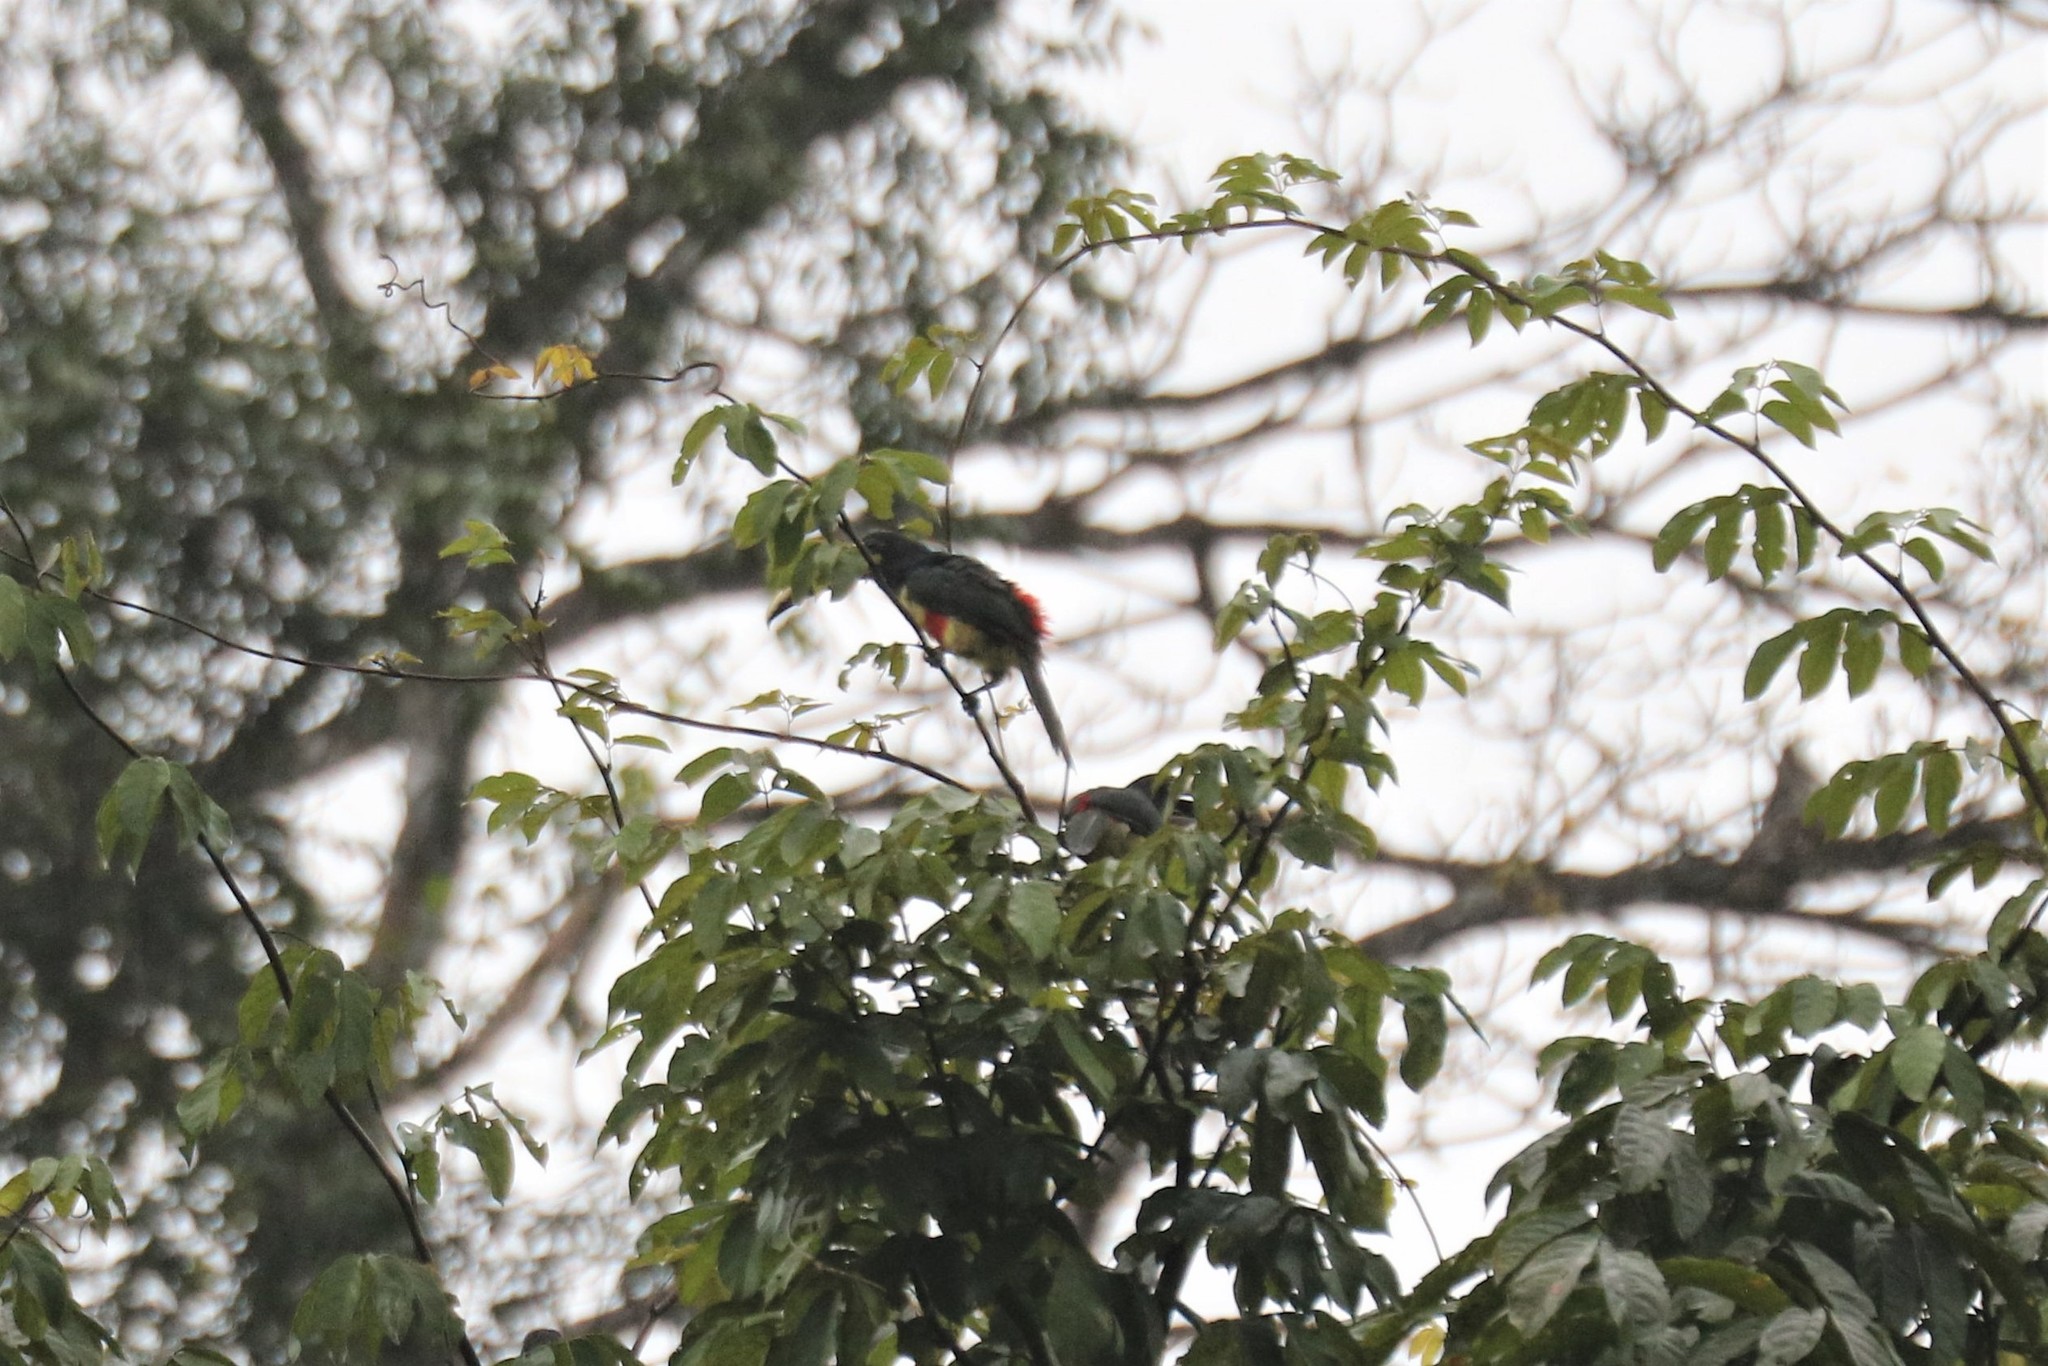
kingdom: Animalia
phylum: Chordata
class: Aves
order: Piciformes
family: Ramphastidae
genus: Pteroglossus
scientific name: Pteroglossus aracari
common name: Black-necked aracari
